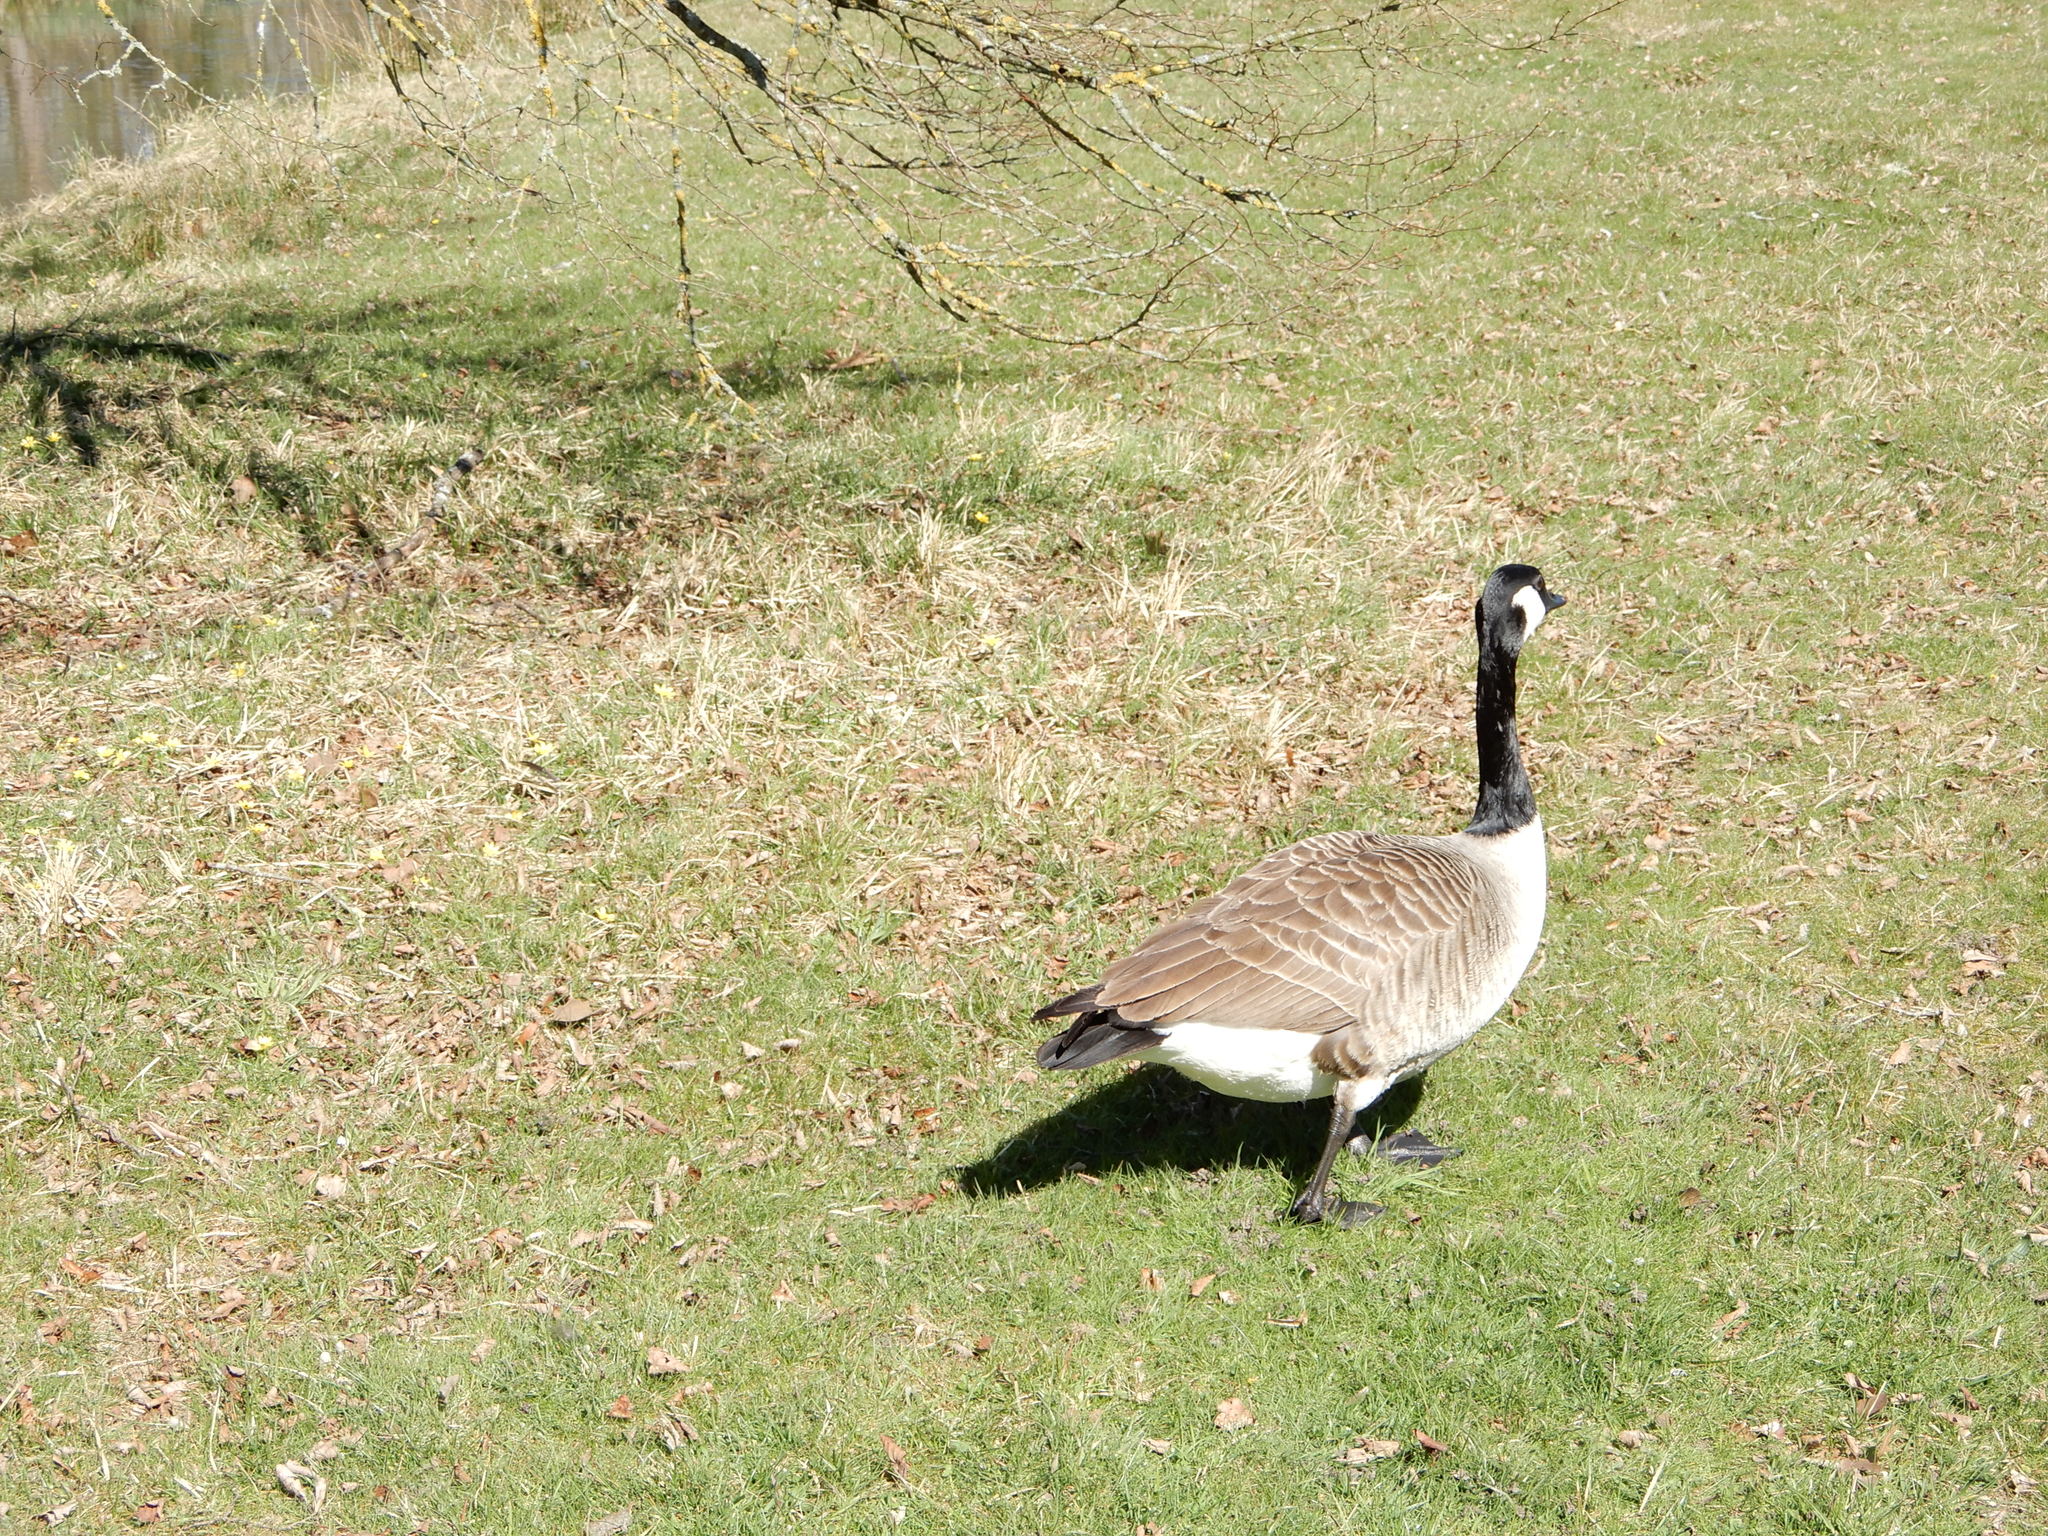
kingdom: Animalia
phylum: Chordata
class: Aves
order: Anseriformes
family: Anatidae
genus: Branta
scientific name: Branta canadensis
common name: Canada goose
